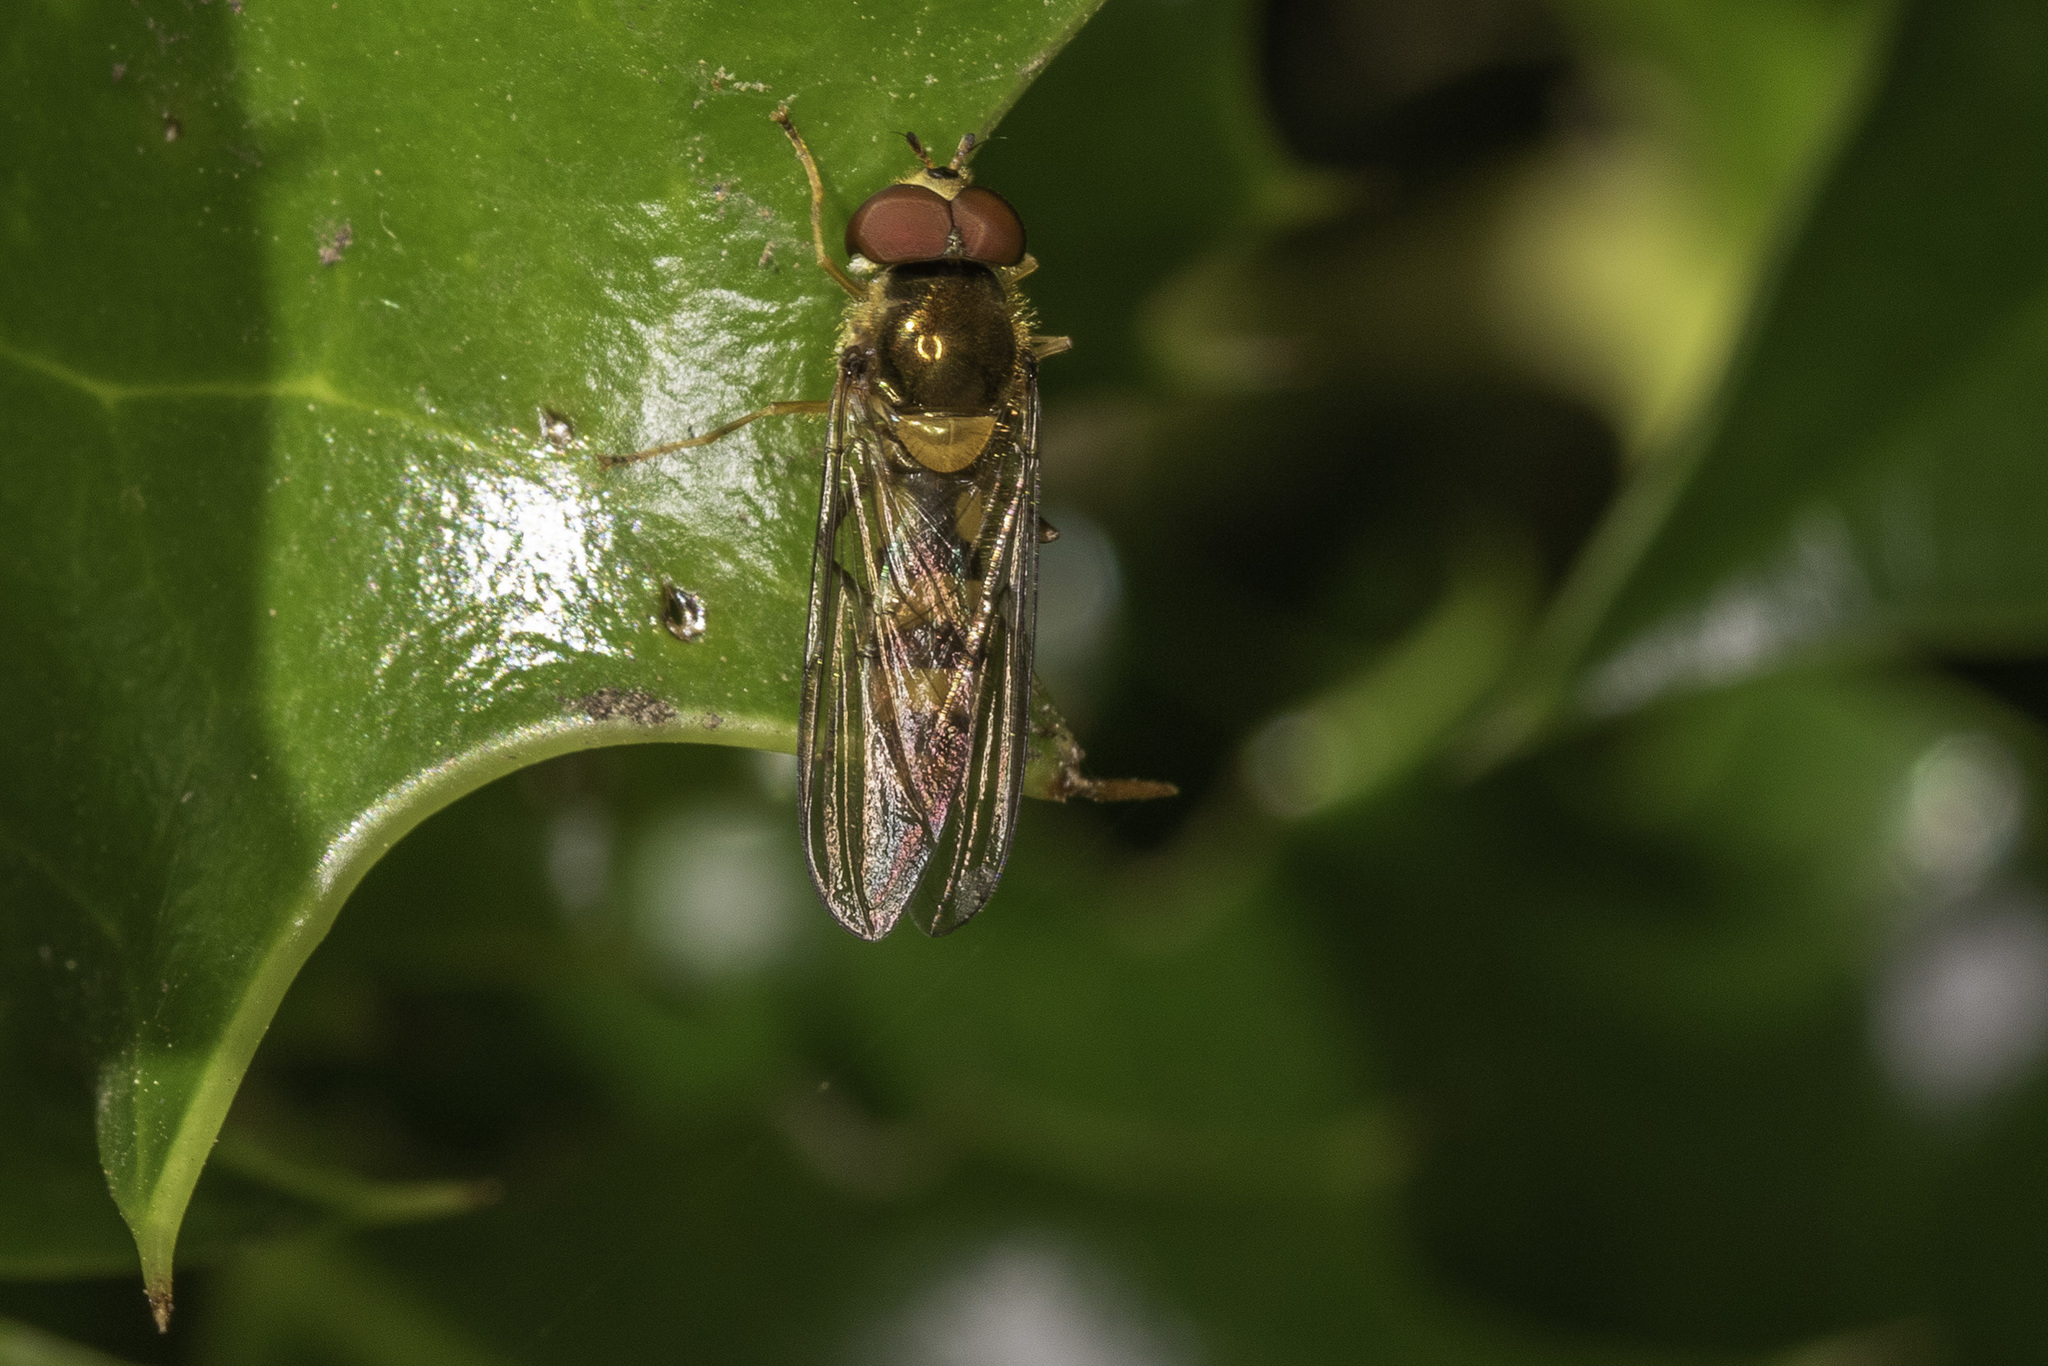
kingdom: Animalia
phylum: Arthropoda
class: Insecta
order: Diptera
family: Syrphidae
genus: Meliscaeva
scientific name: Meliscaeva cinctella
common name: American thintail fly
